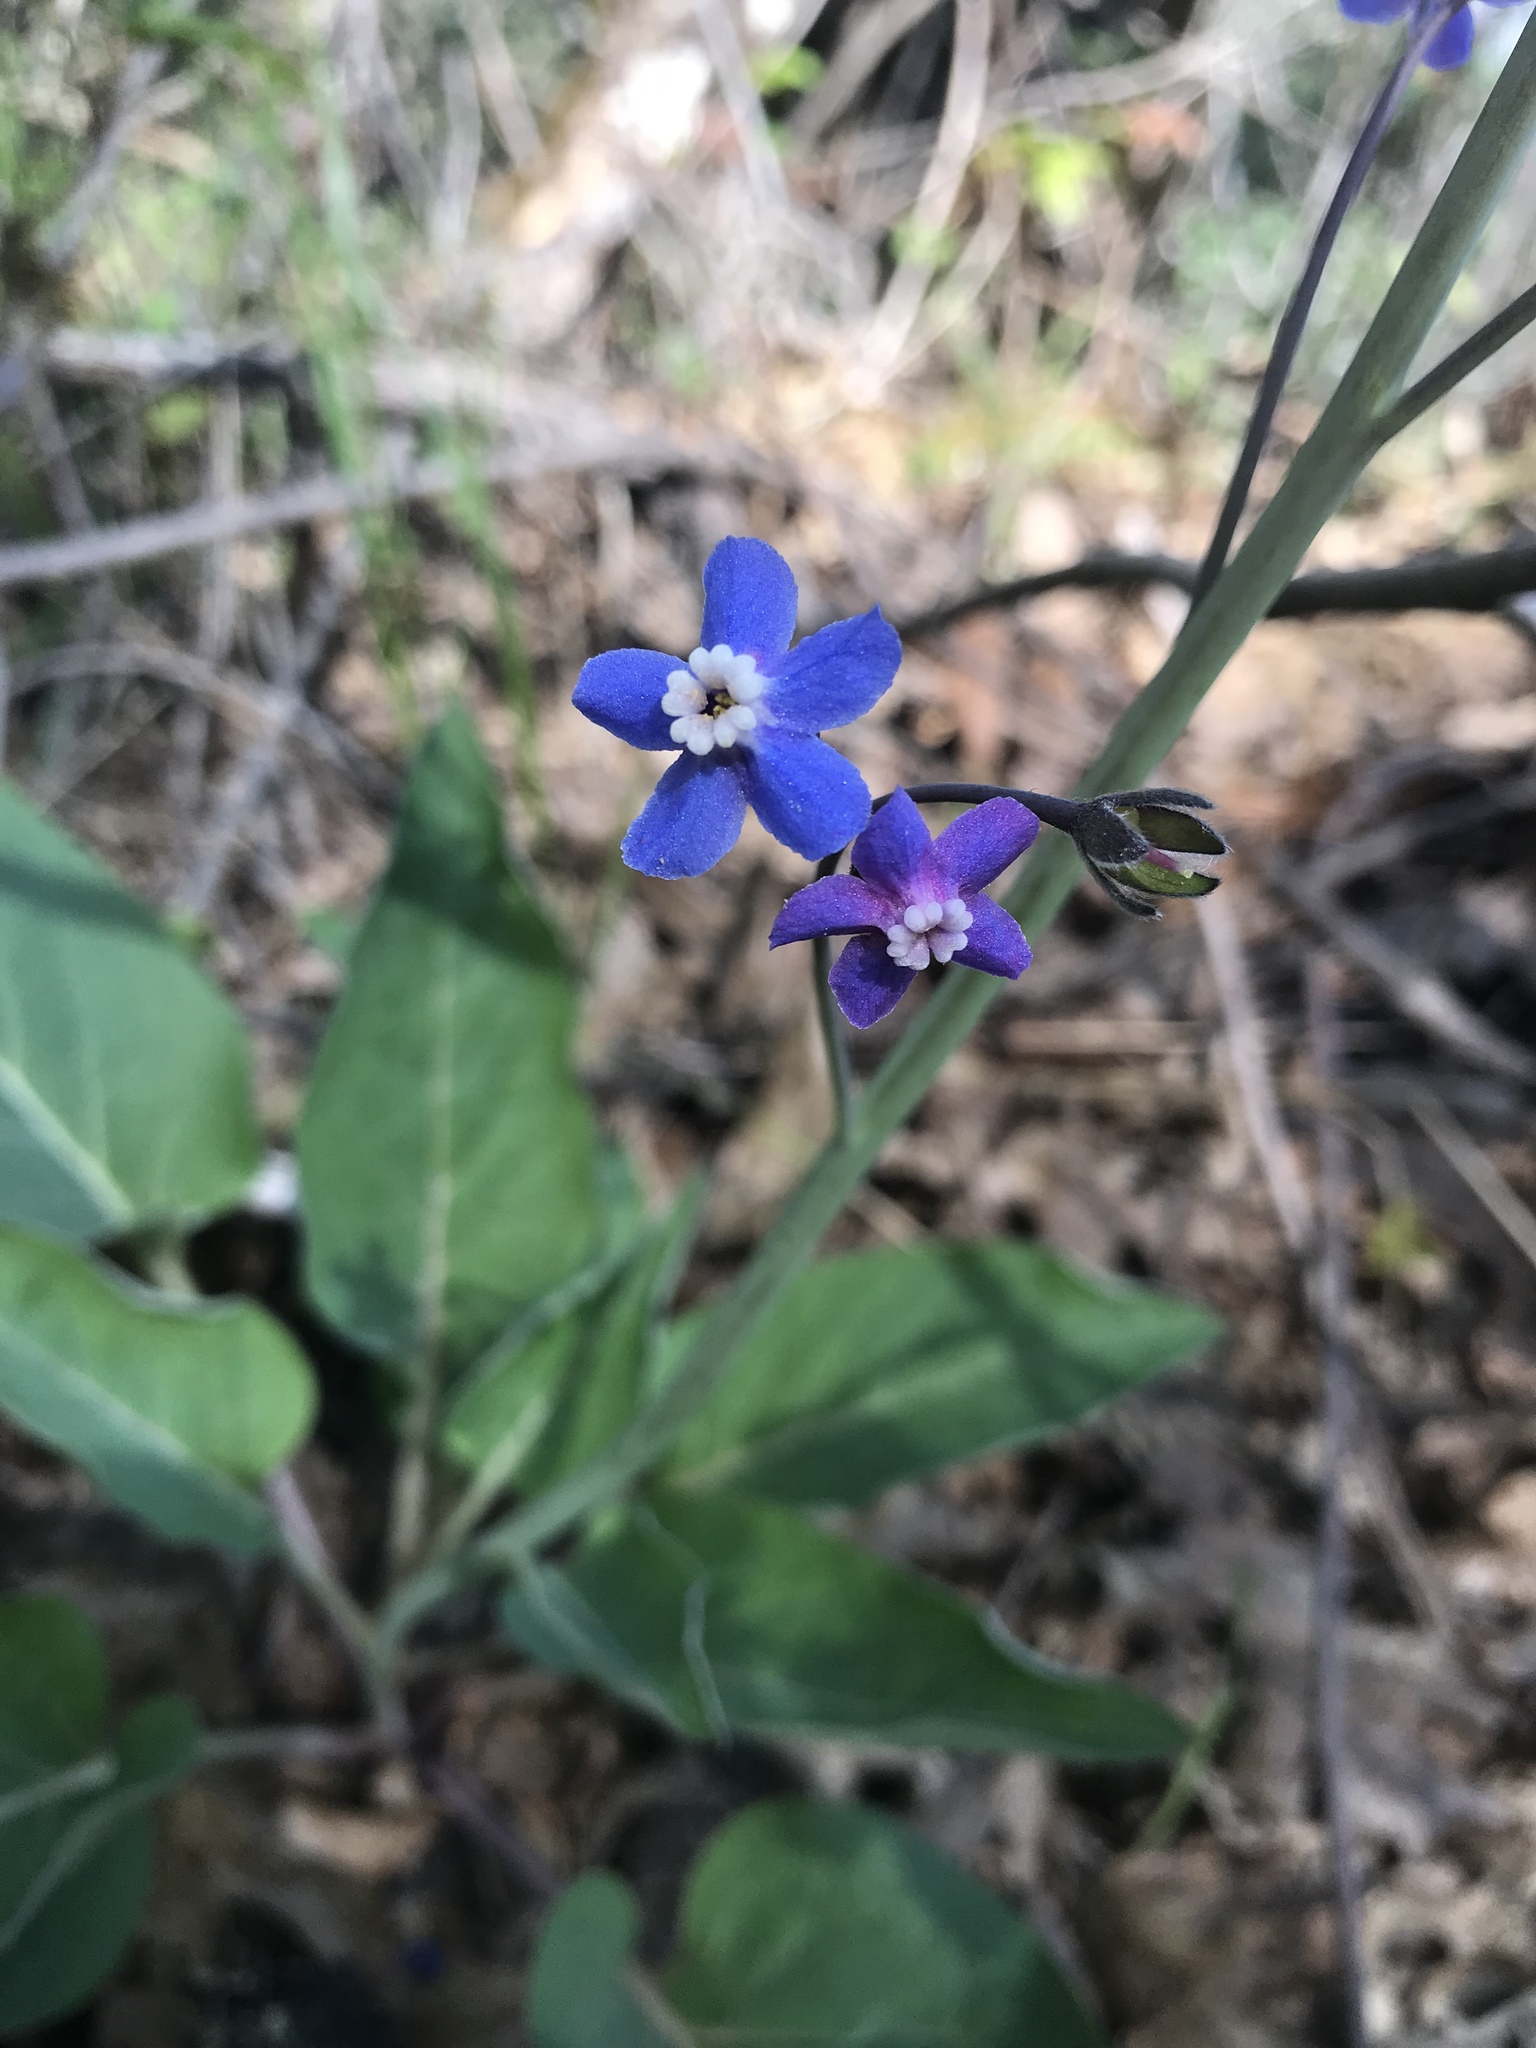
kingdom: Plantae
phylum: Tracheophyta
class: Magnoliopsida
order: Boraginales
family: Boraginaceae
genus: Adelinia
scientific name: Adelinia grande
